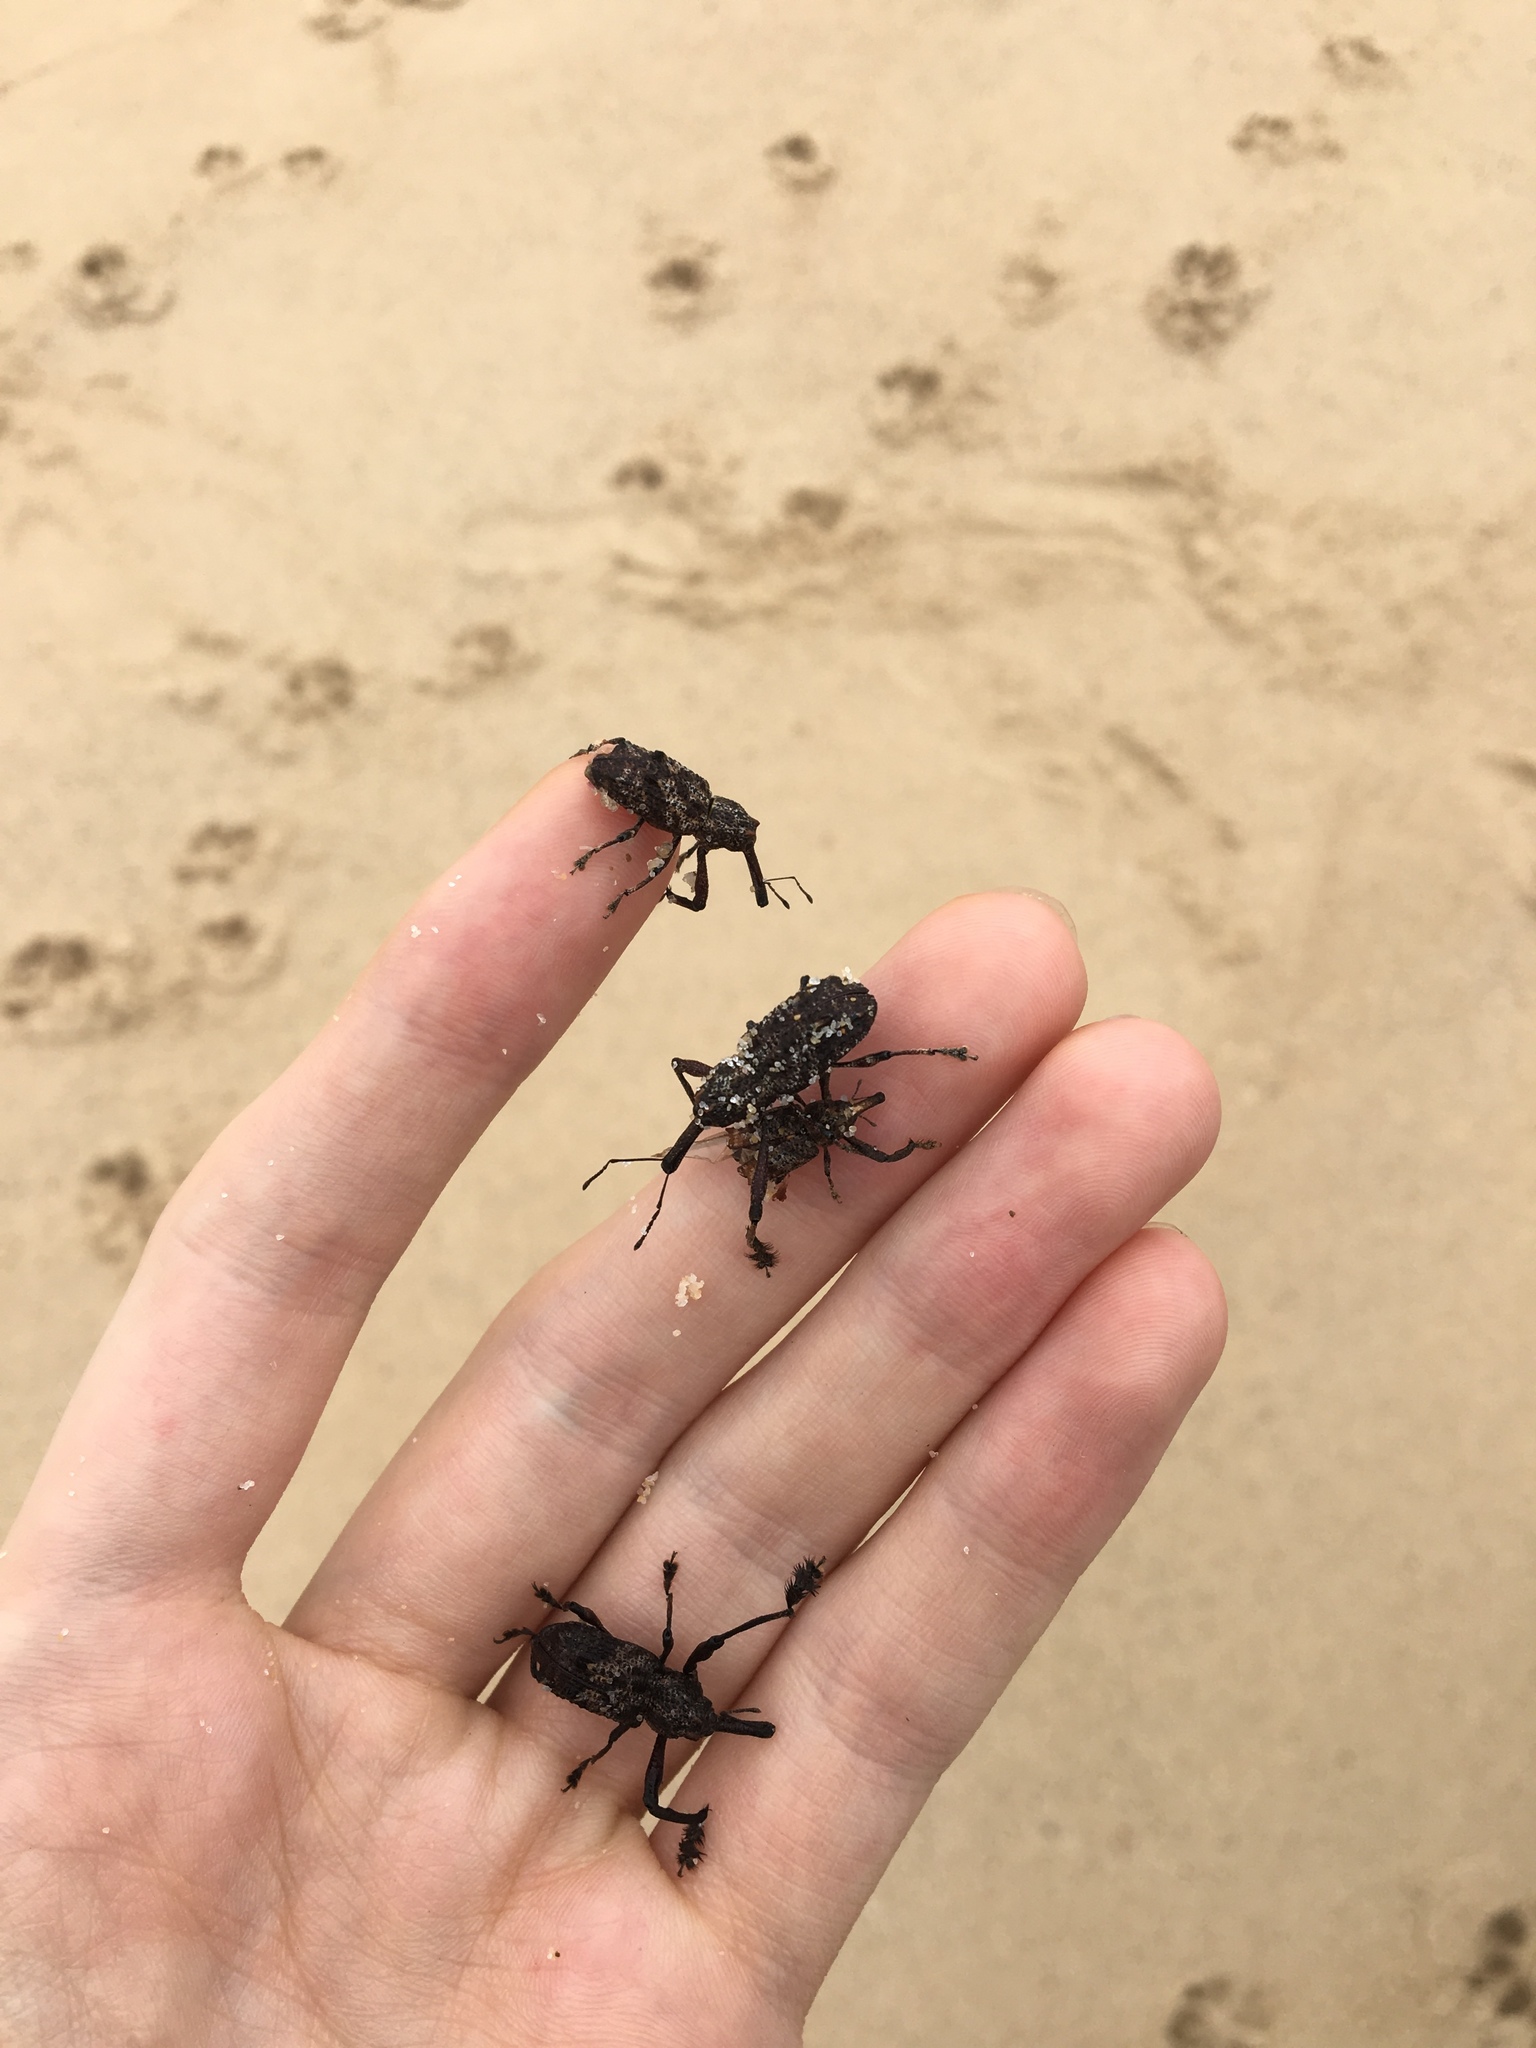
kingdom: Animalia
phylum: Arthropoda
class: Insecta
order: Coleoptera
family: Curculionidae
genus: Orthorhinus
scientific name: Orthorhinus cylindrirostris
